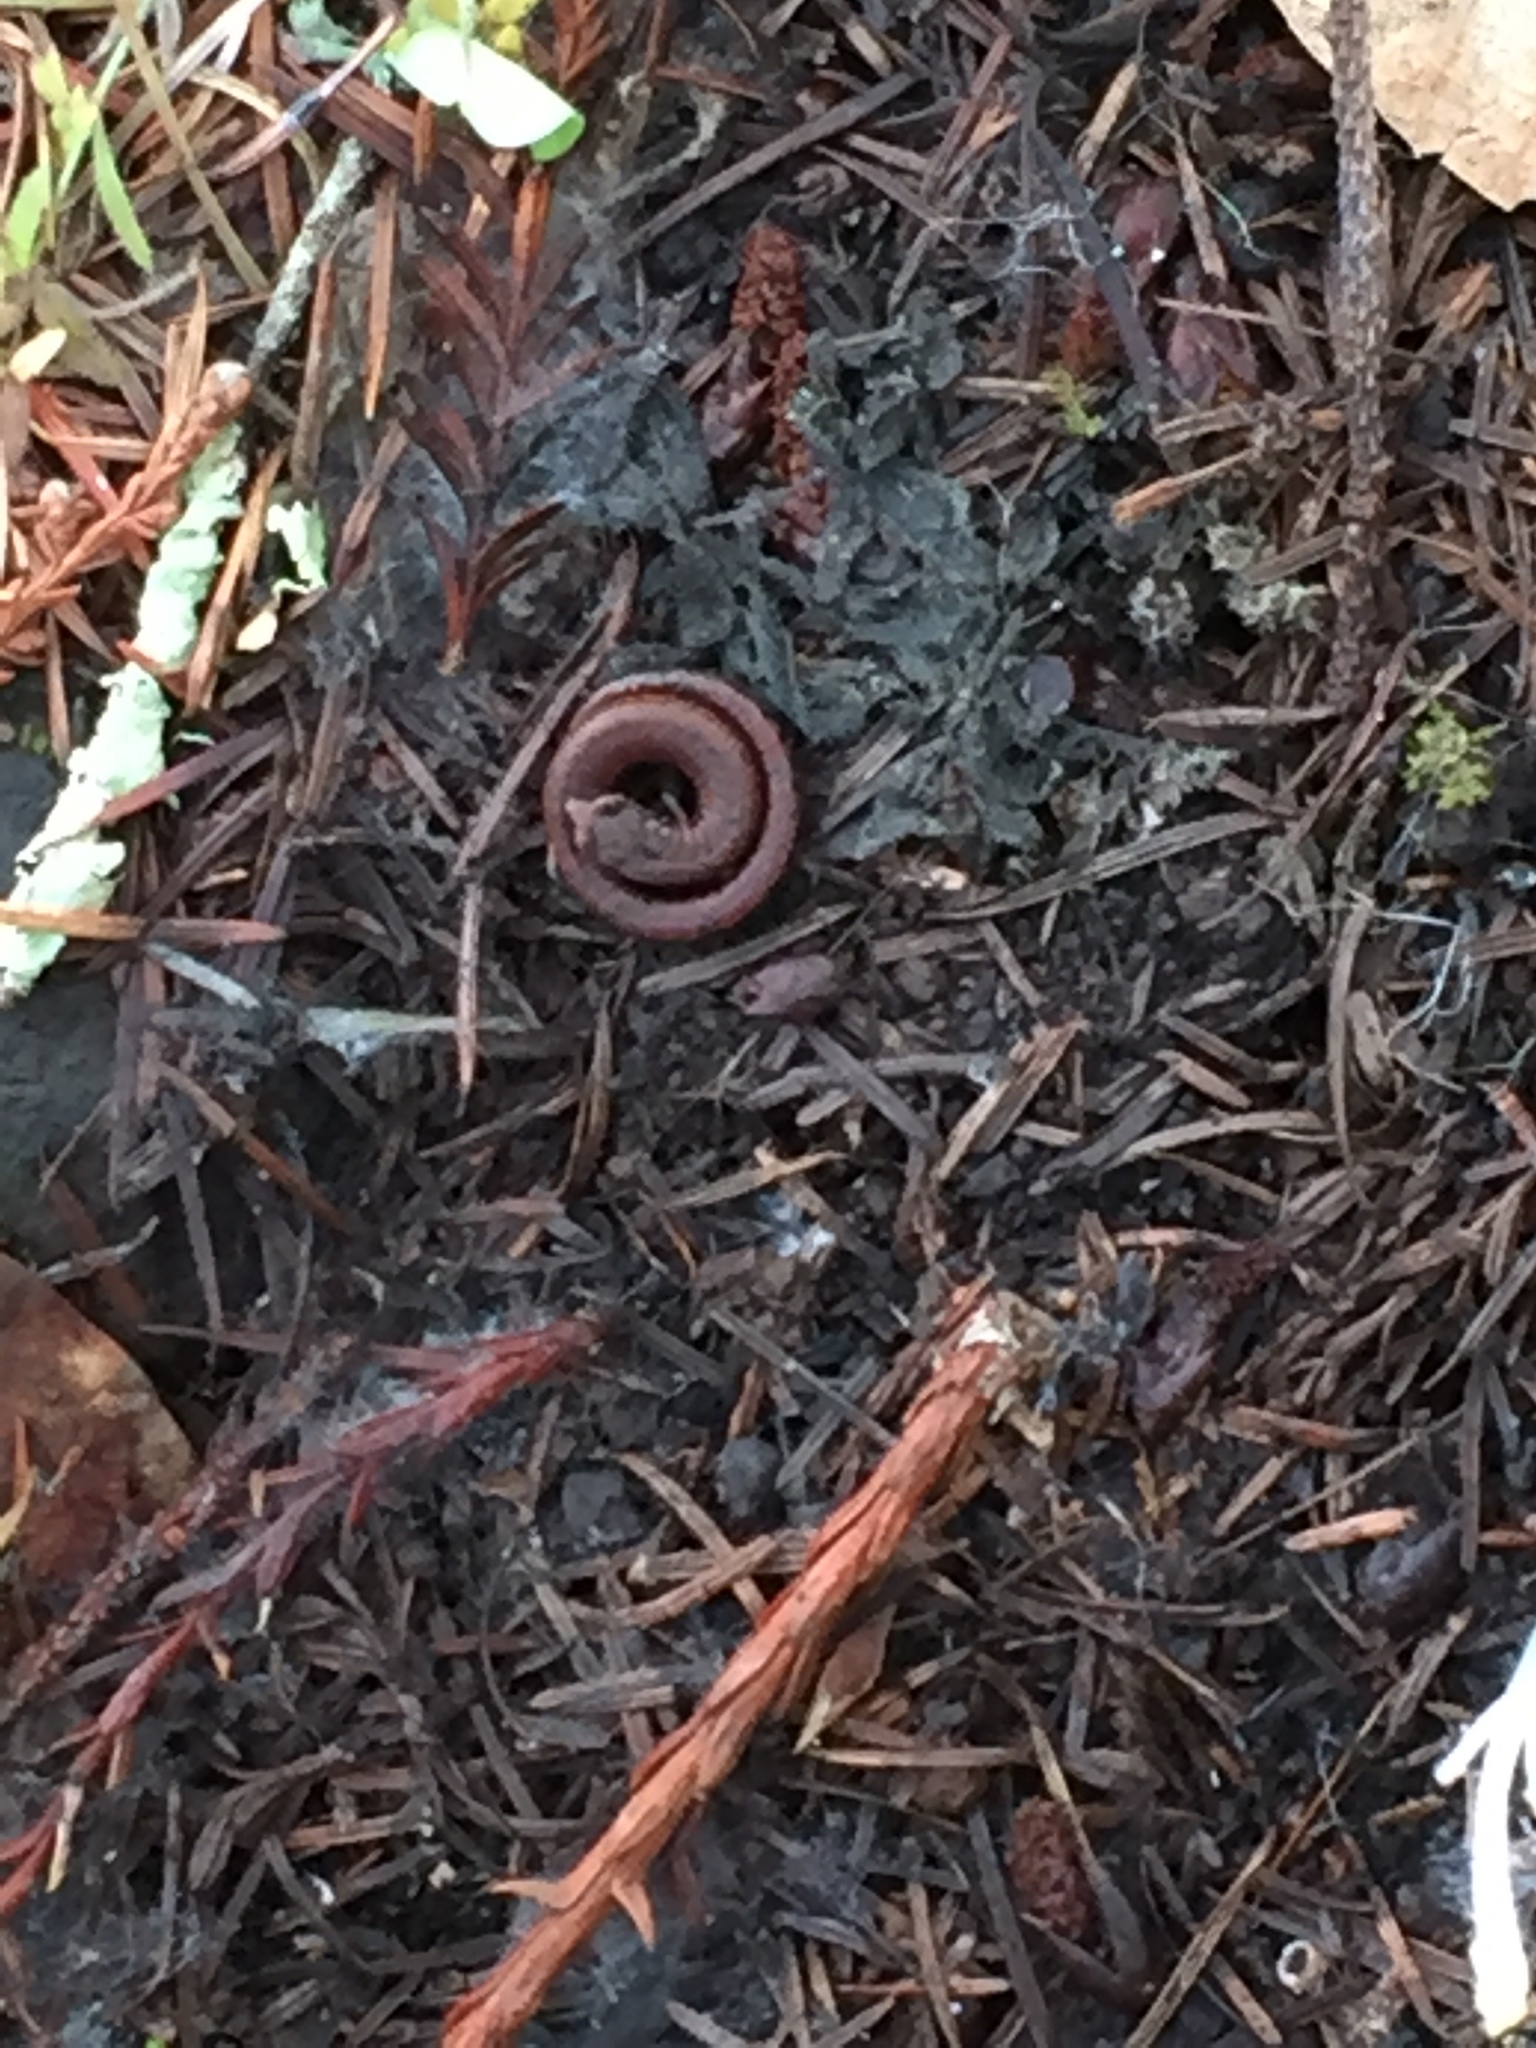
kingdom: Animalia
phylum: Chordata
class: Amphibia
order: Caudata
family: Plethodontidae
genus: Batrachoseps
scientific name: Batrachoseps attenuatus
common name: California slender salamander
